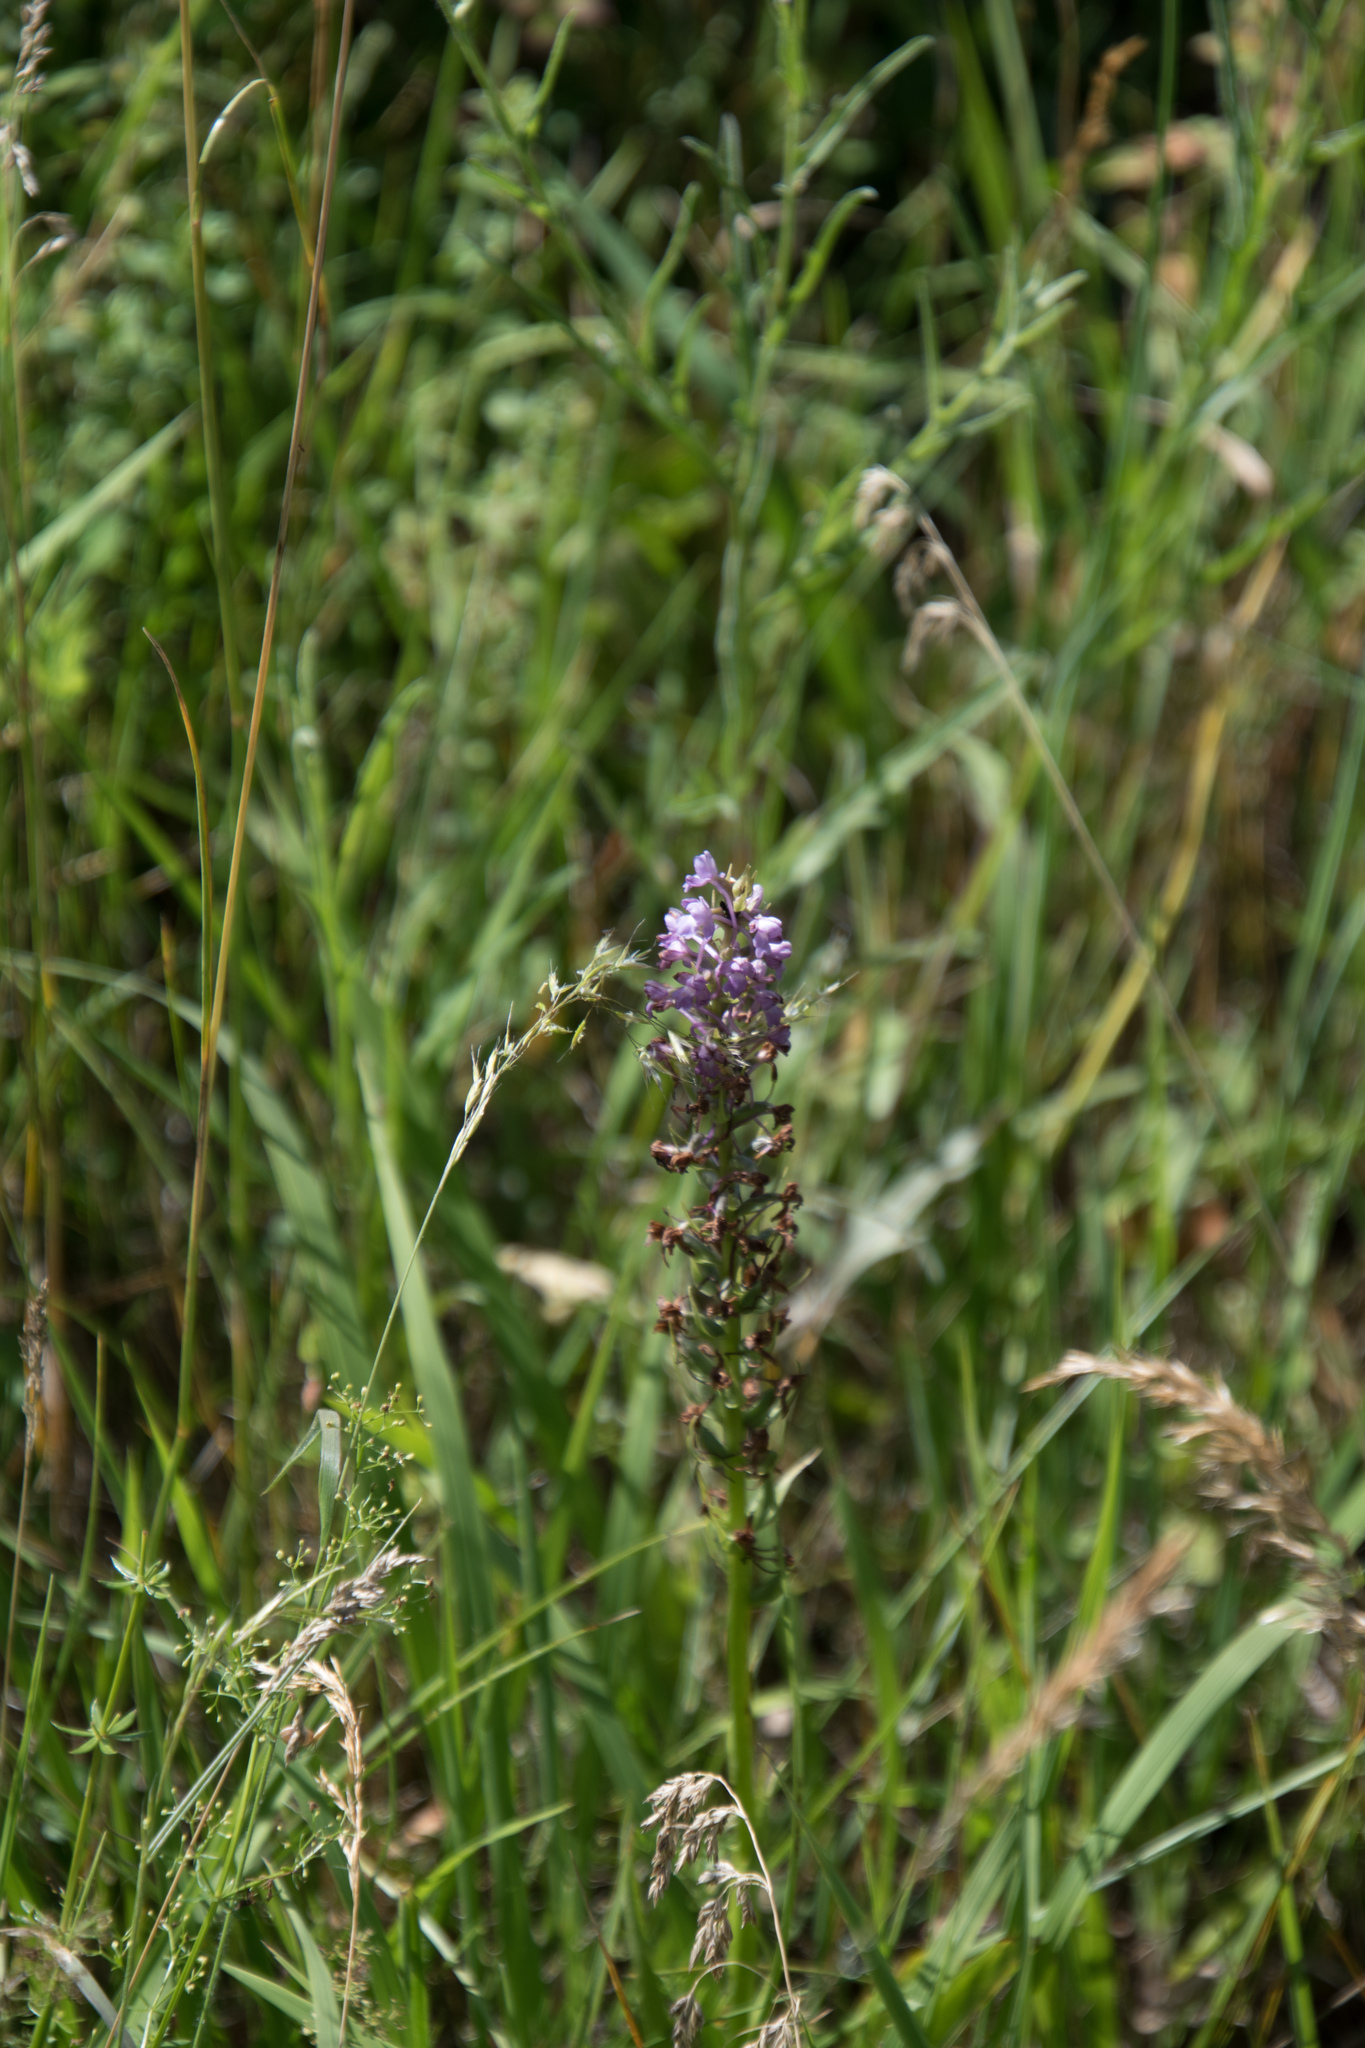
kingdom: Plantae
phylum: Tracheophyta
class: Liliopsida
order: Asparagales
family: Orchidaceae
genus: Gymnadenia
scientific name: Gymnadenia conopsea
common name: Fragrant orchid
